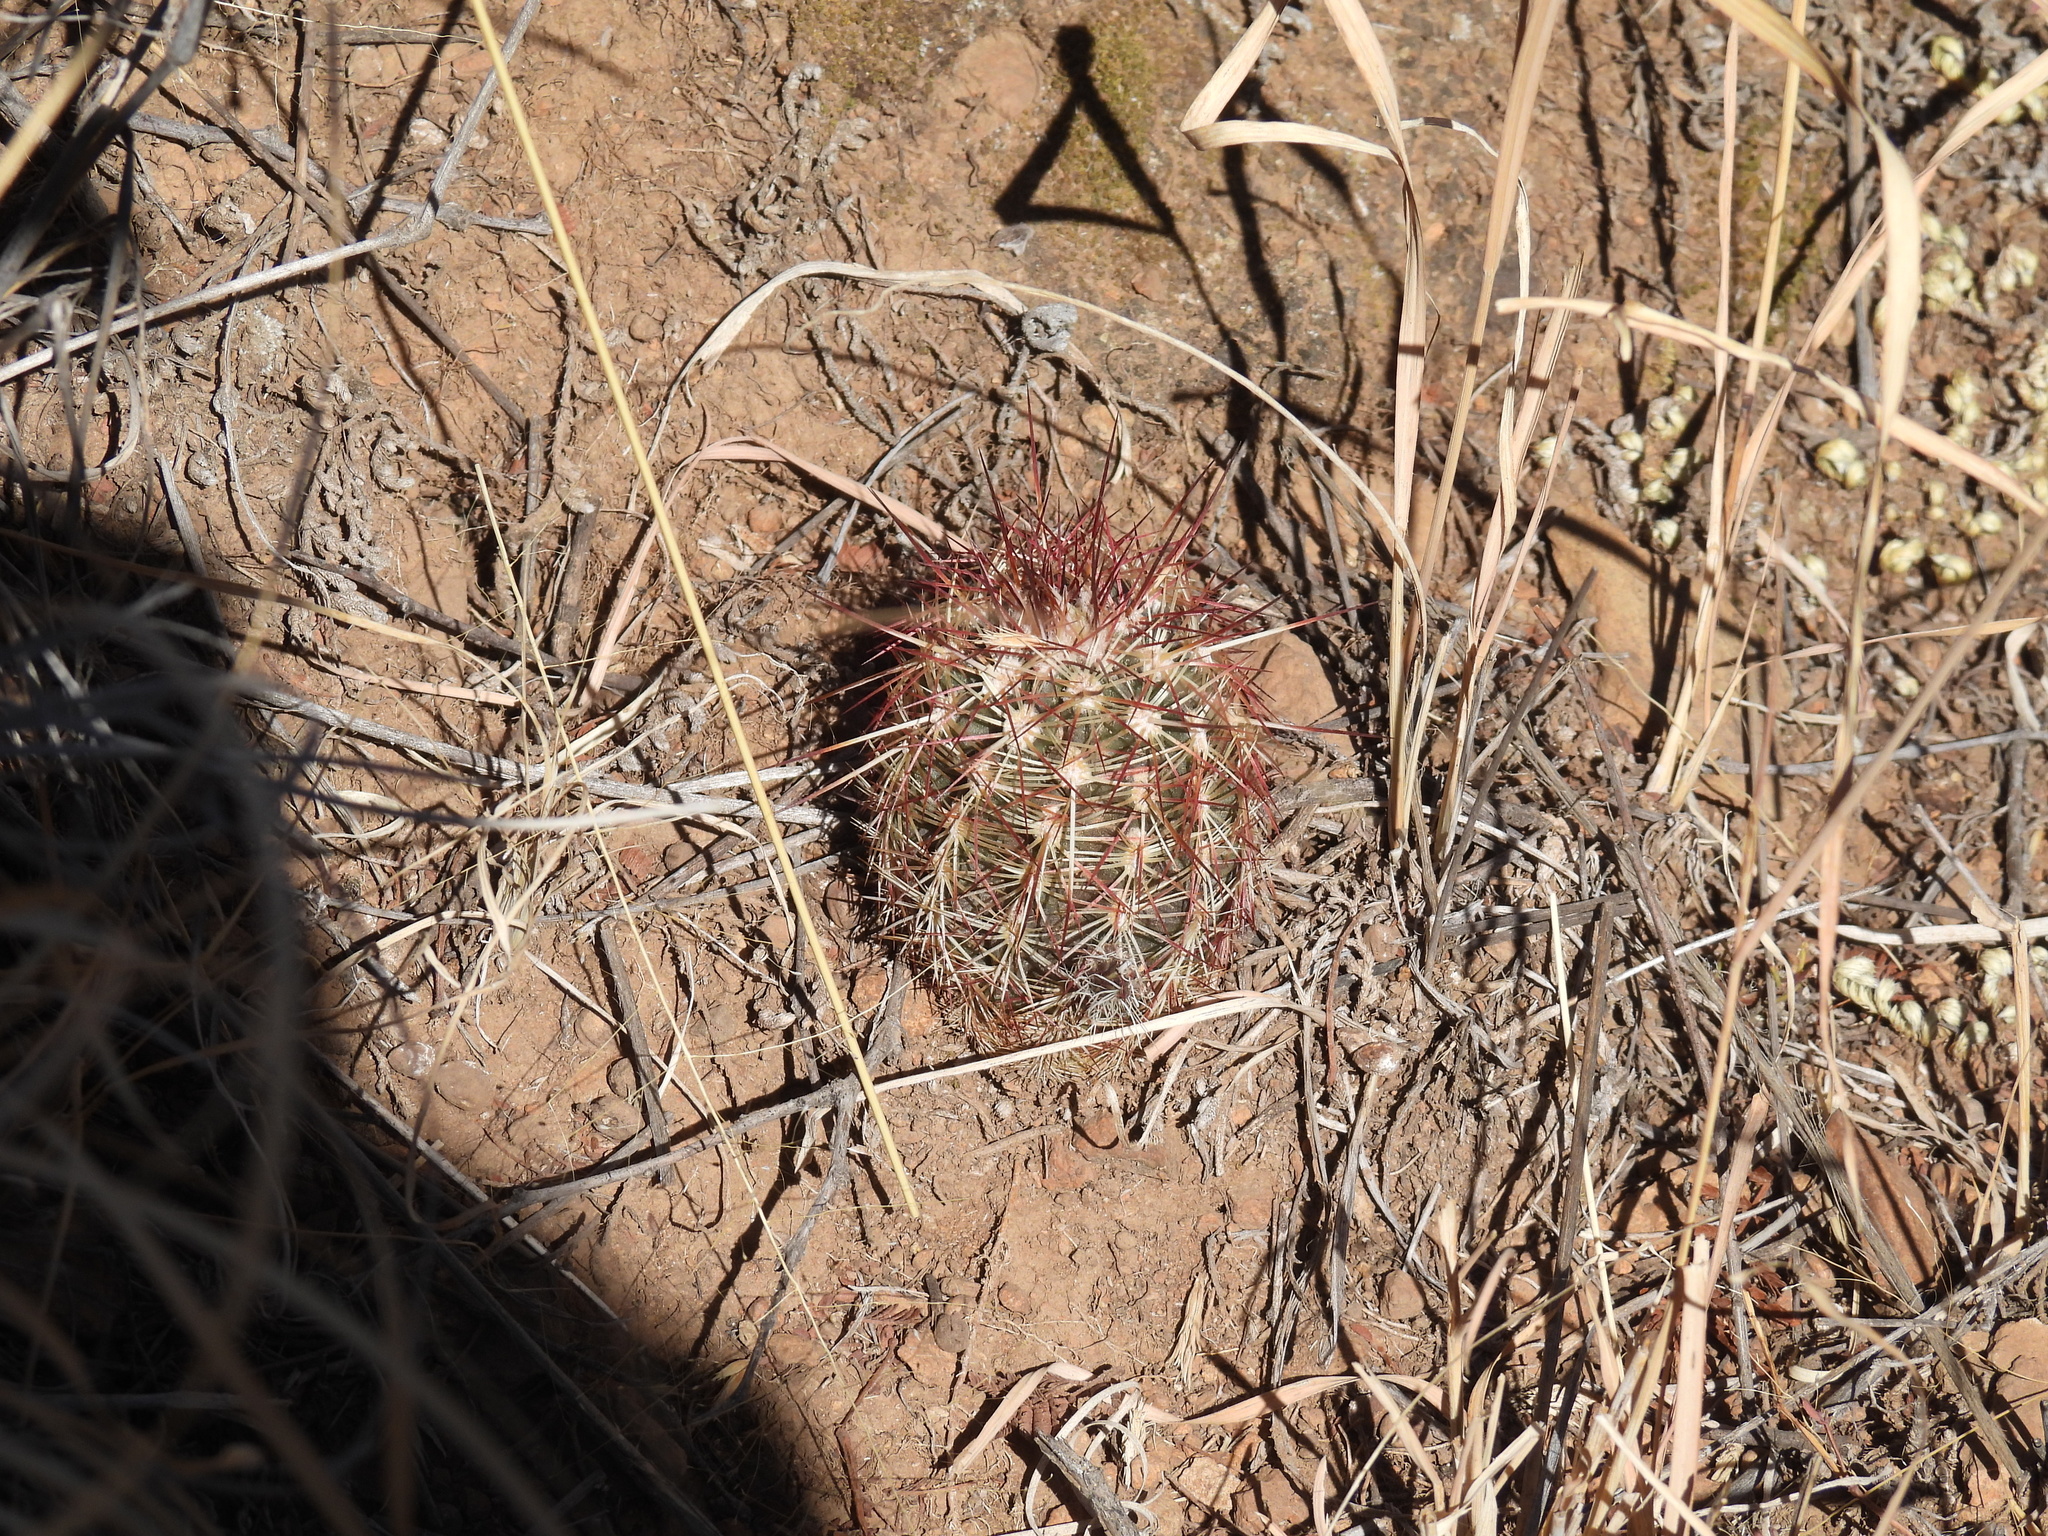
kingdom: Plantae
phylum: Tracheophyta
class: Magnoliopsida
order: Caryophyllales
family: Cactaceae
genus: Echinocereus
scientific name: Echinocereus viridiflorus
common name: Nylon hedgehog cactus
